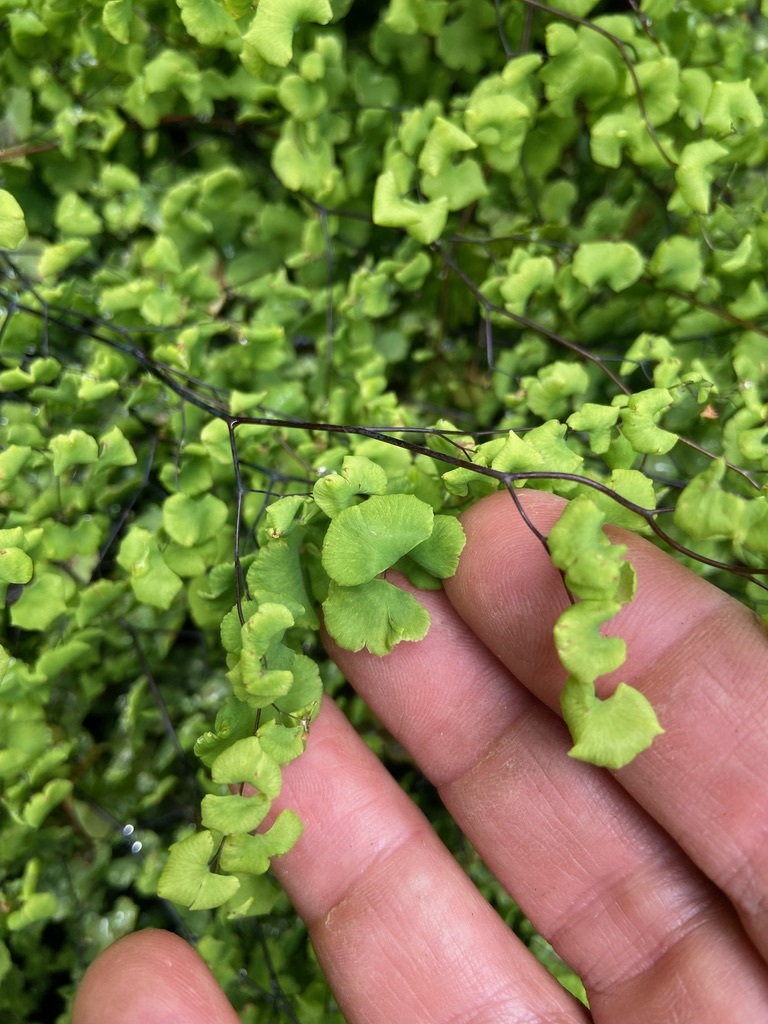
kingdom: Plantae
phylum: Tracheophyta
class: Polypodiopsida
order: Polypodiales
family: Pteridaceae
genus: Adiantum
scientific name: Adiantum chilense
